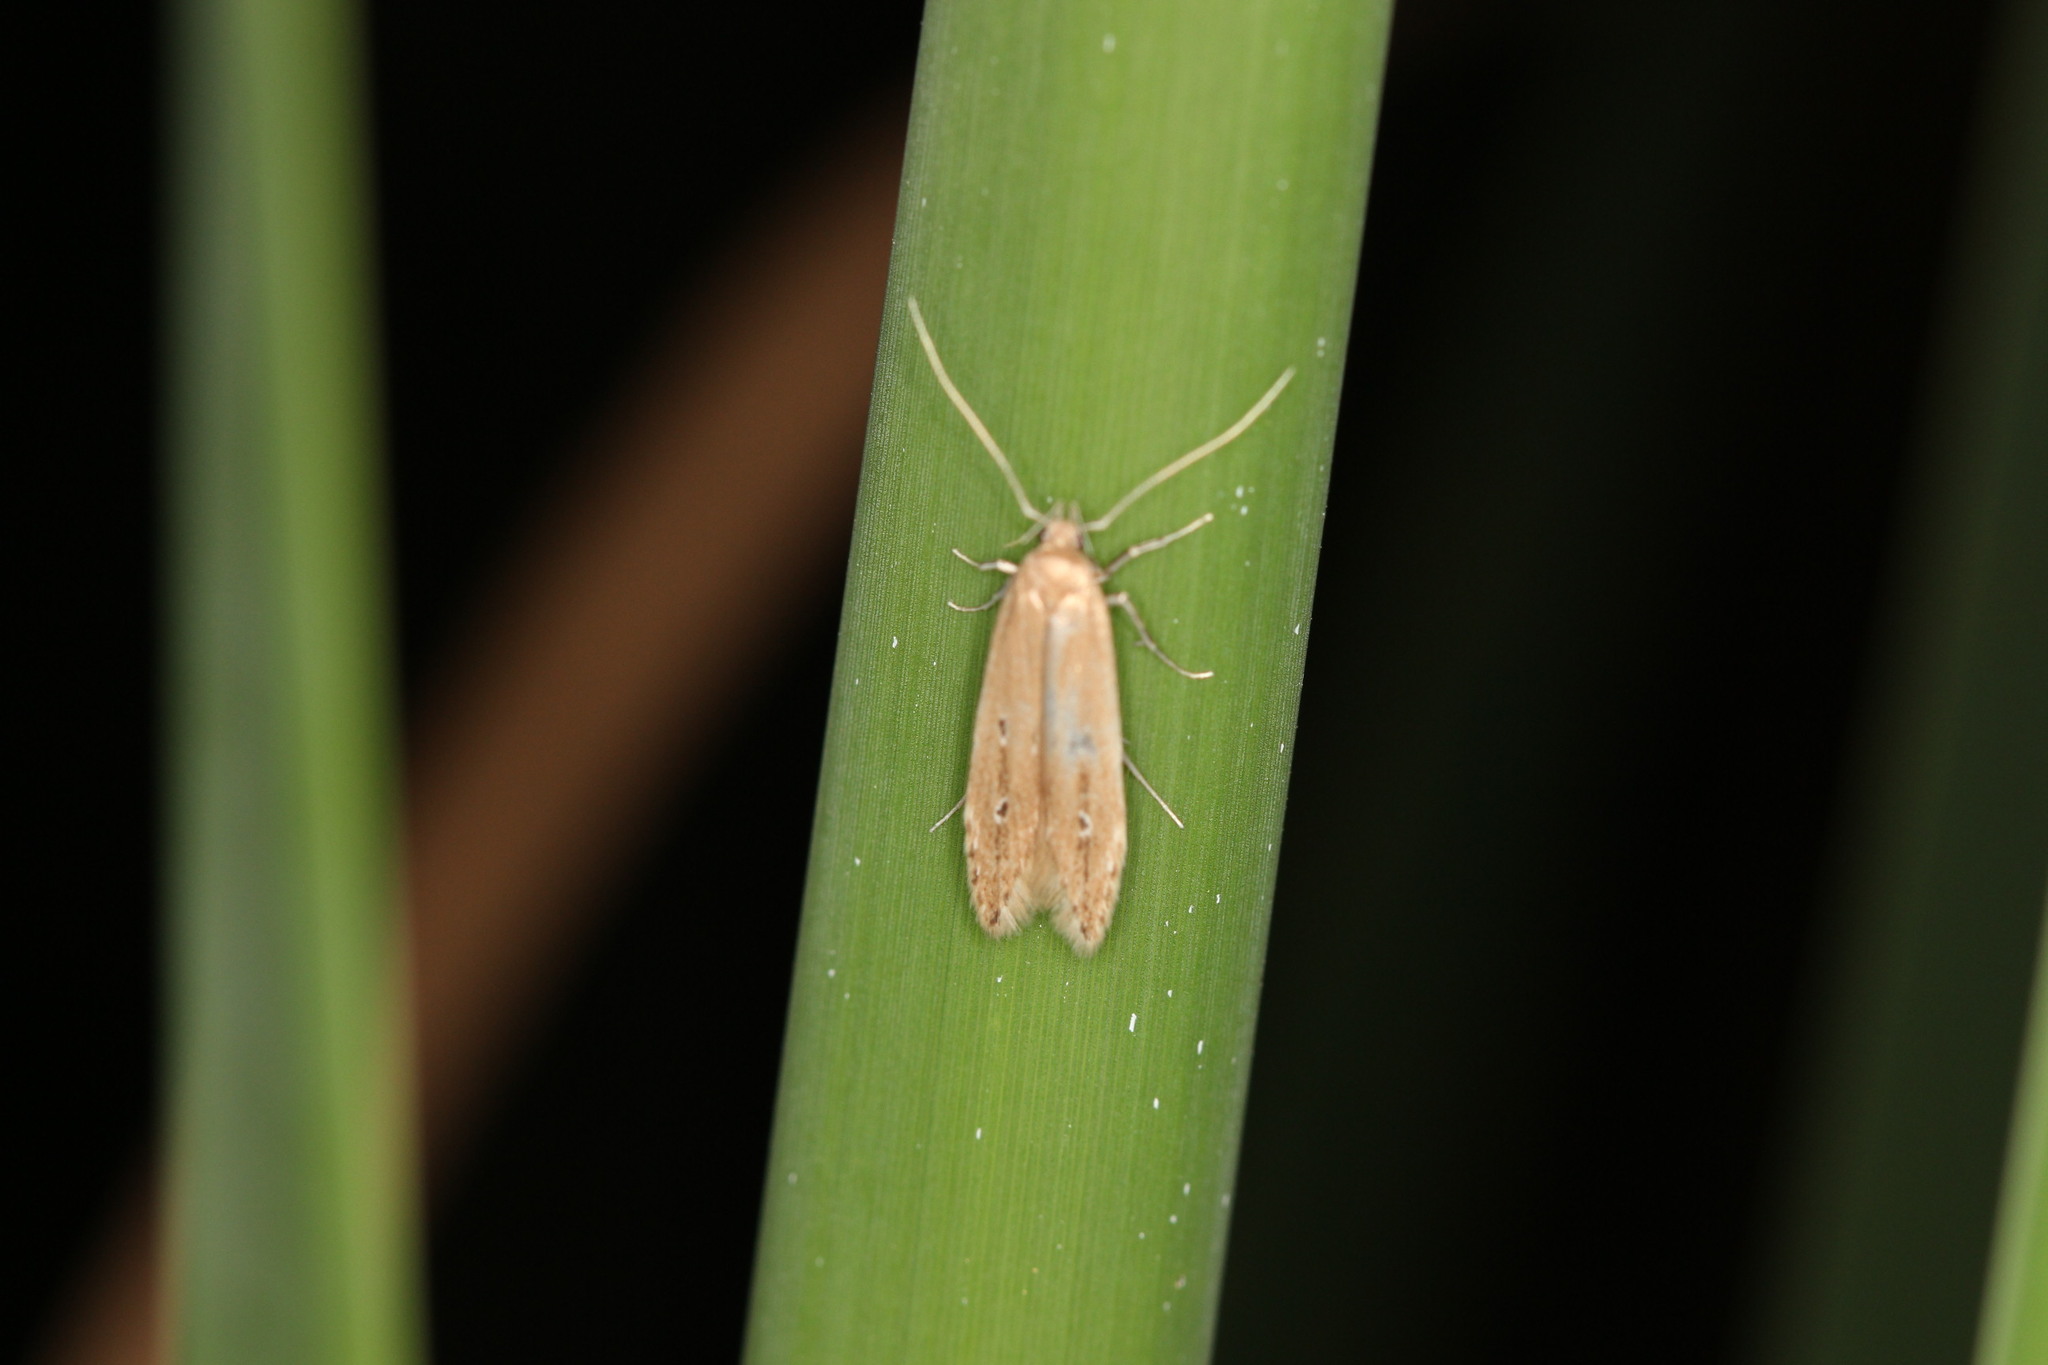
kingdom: Animalia
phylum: Arthropoda
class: Insecta
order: Lepidoptera
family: Cosmopterigidae
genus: Limnaecia
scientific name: Limnaecia phragmitella
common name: Bulrush cosmet
